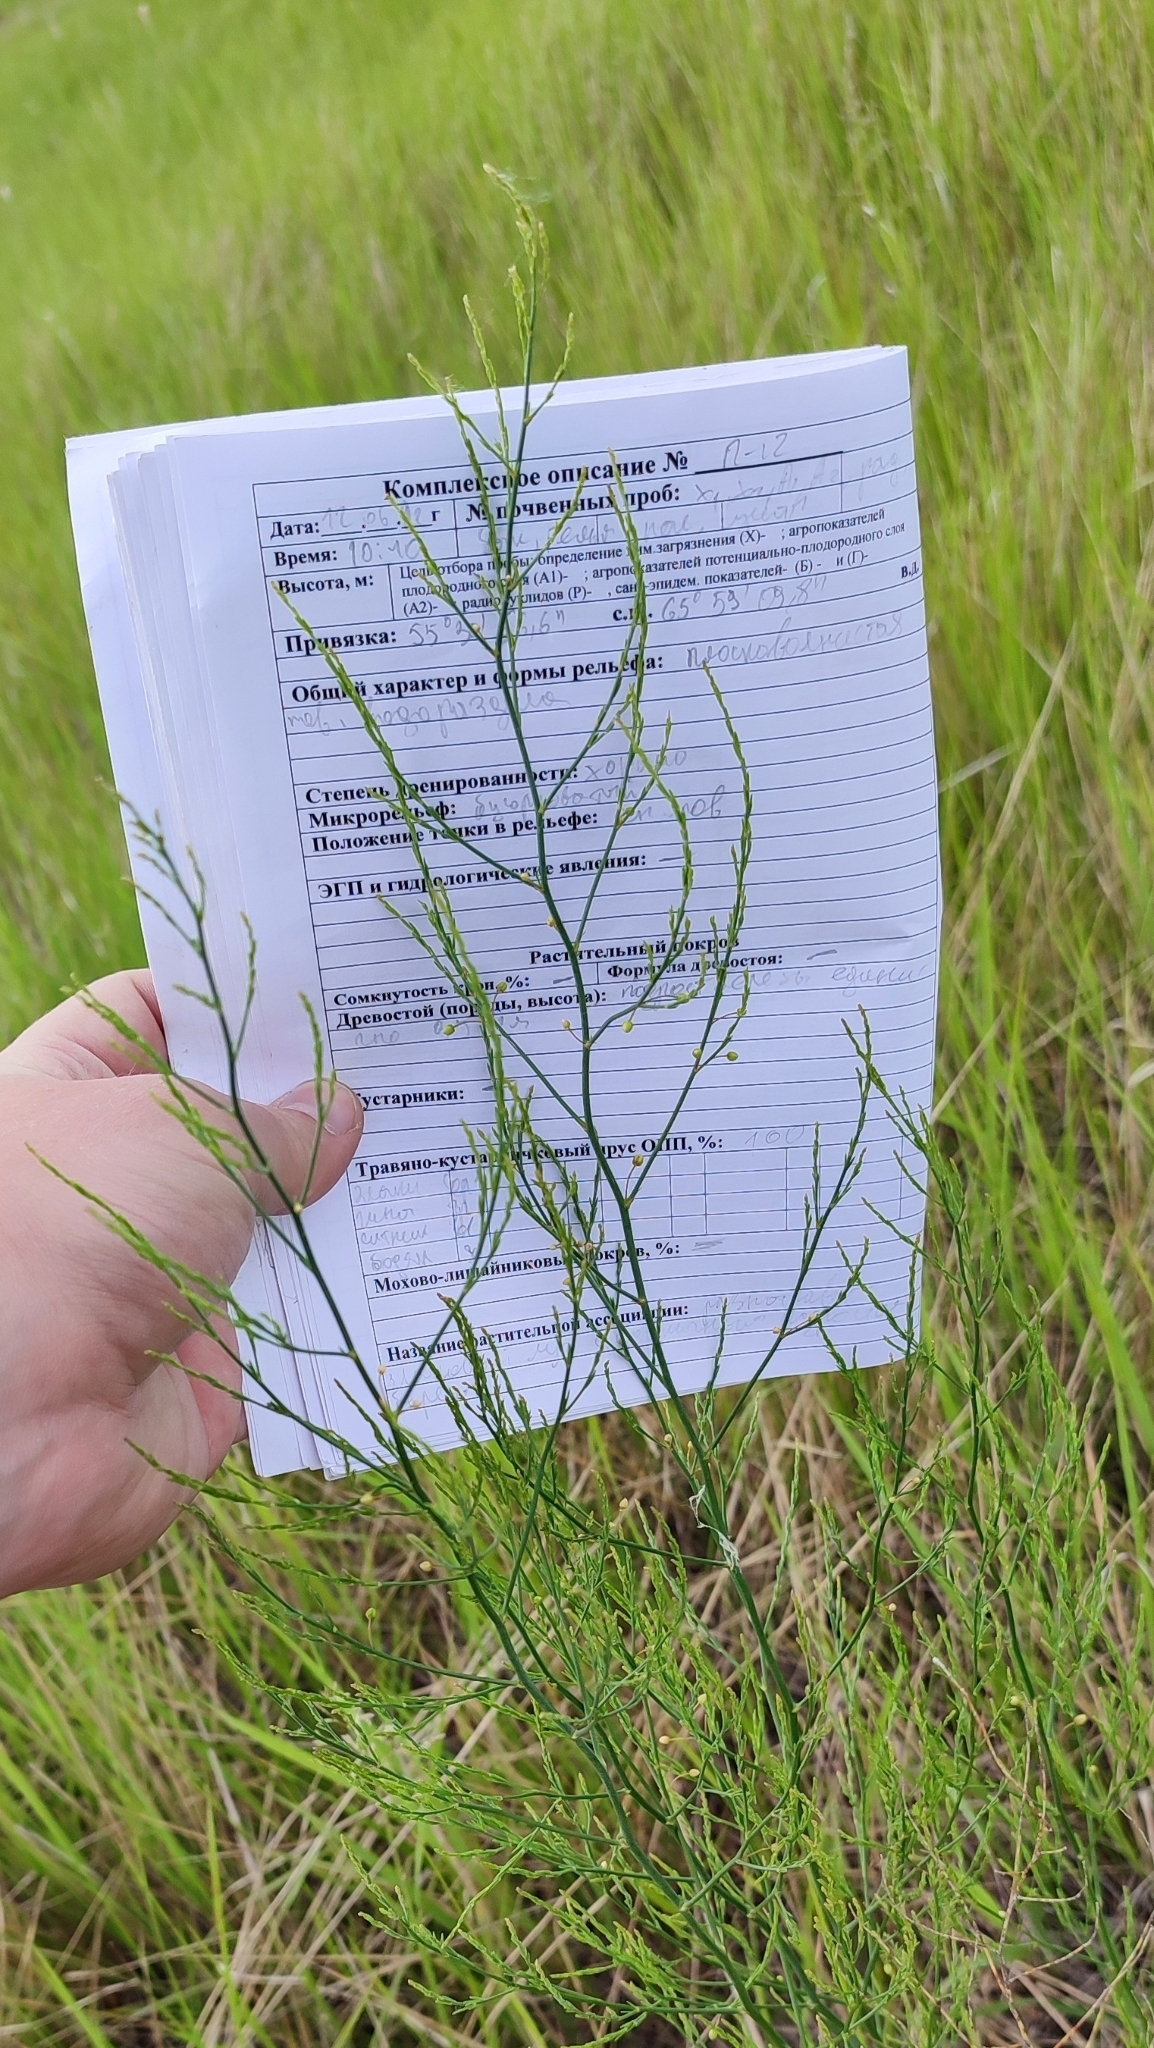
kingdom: Plantae
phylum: Tracheophyta
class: Liliopsida
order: Asparagales
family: Asparagaceae
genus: Asparagus
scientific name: Asparagus officinalis
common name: Garden asparagus
